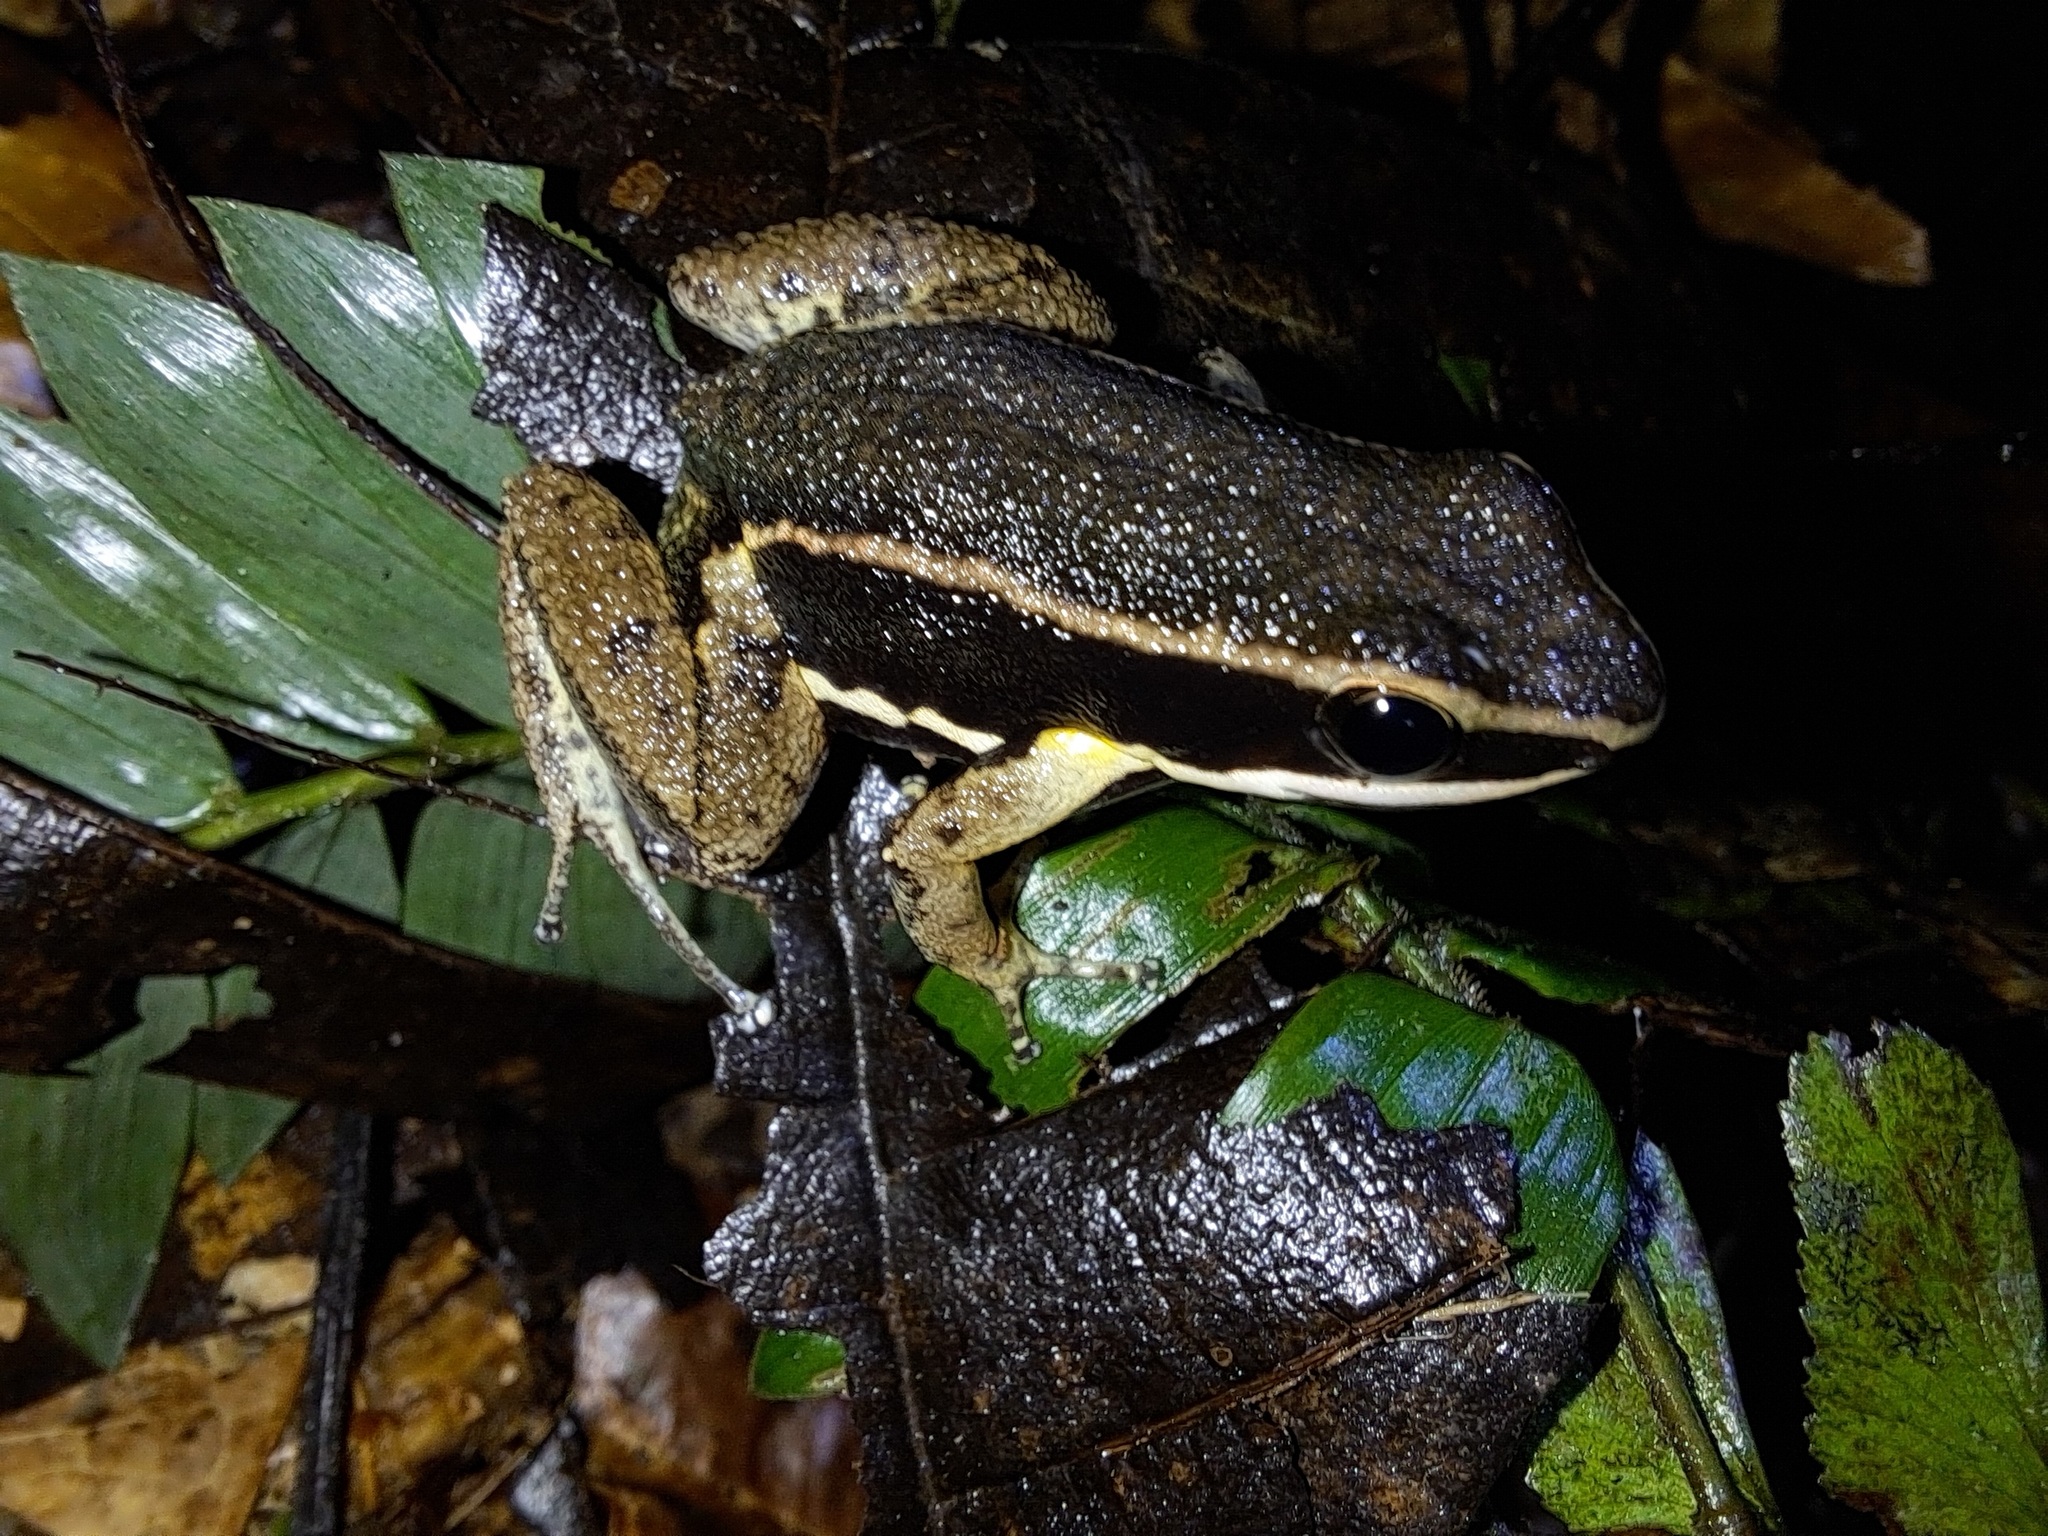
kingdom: Animalia
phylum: Chordata
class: Amphibia
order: Anura
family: Aromobatidae
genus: Allobates
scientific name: Allobates femoralis
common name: Brilliant-thighed poison frog
